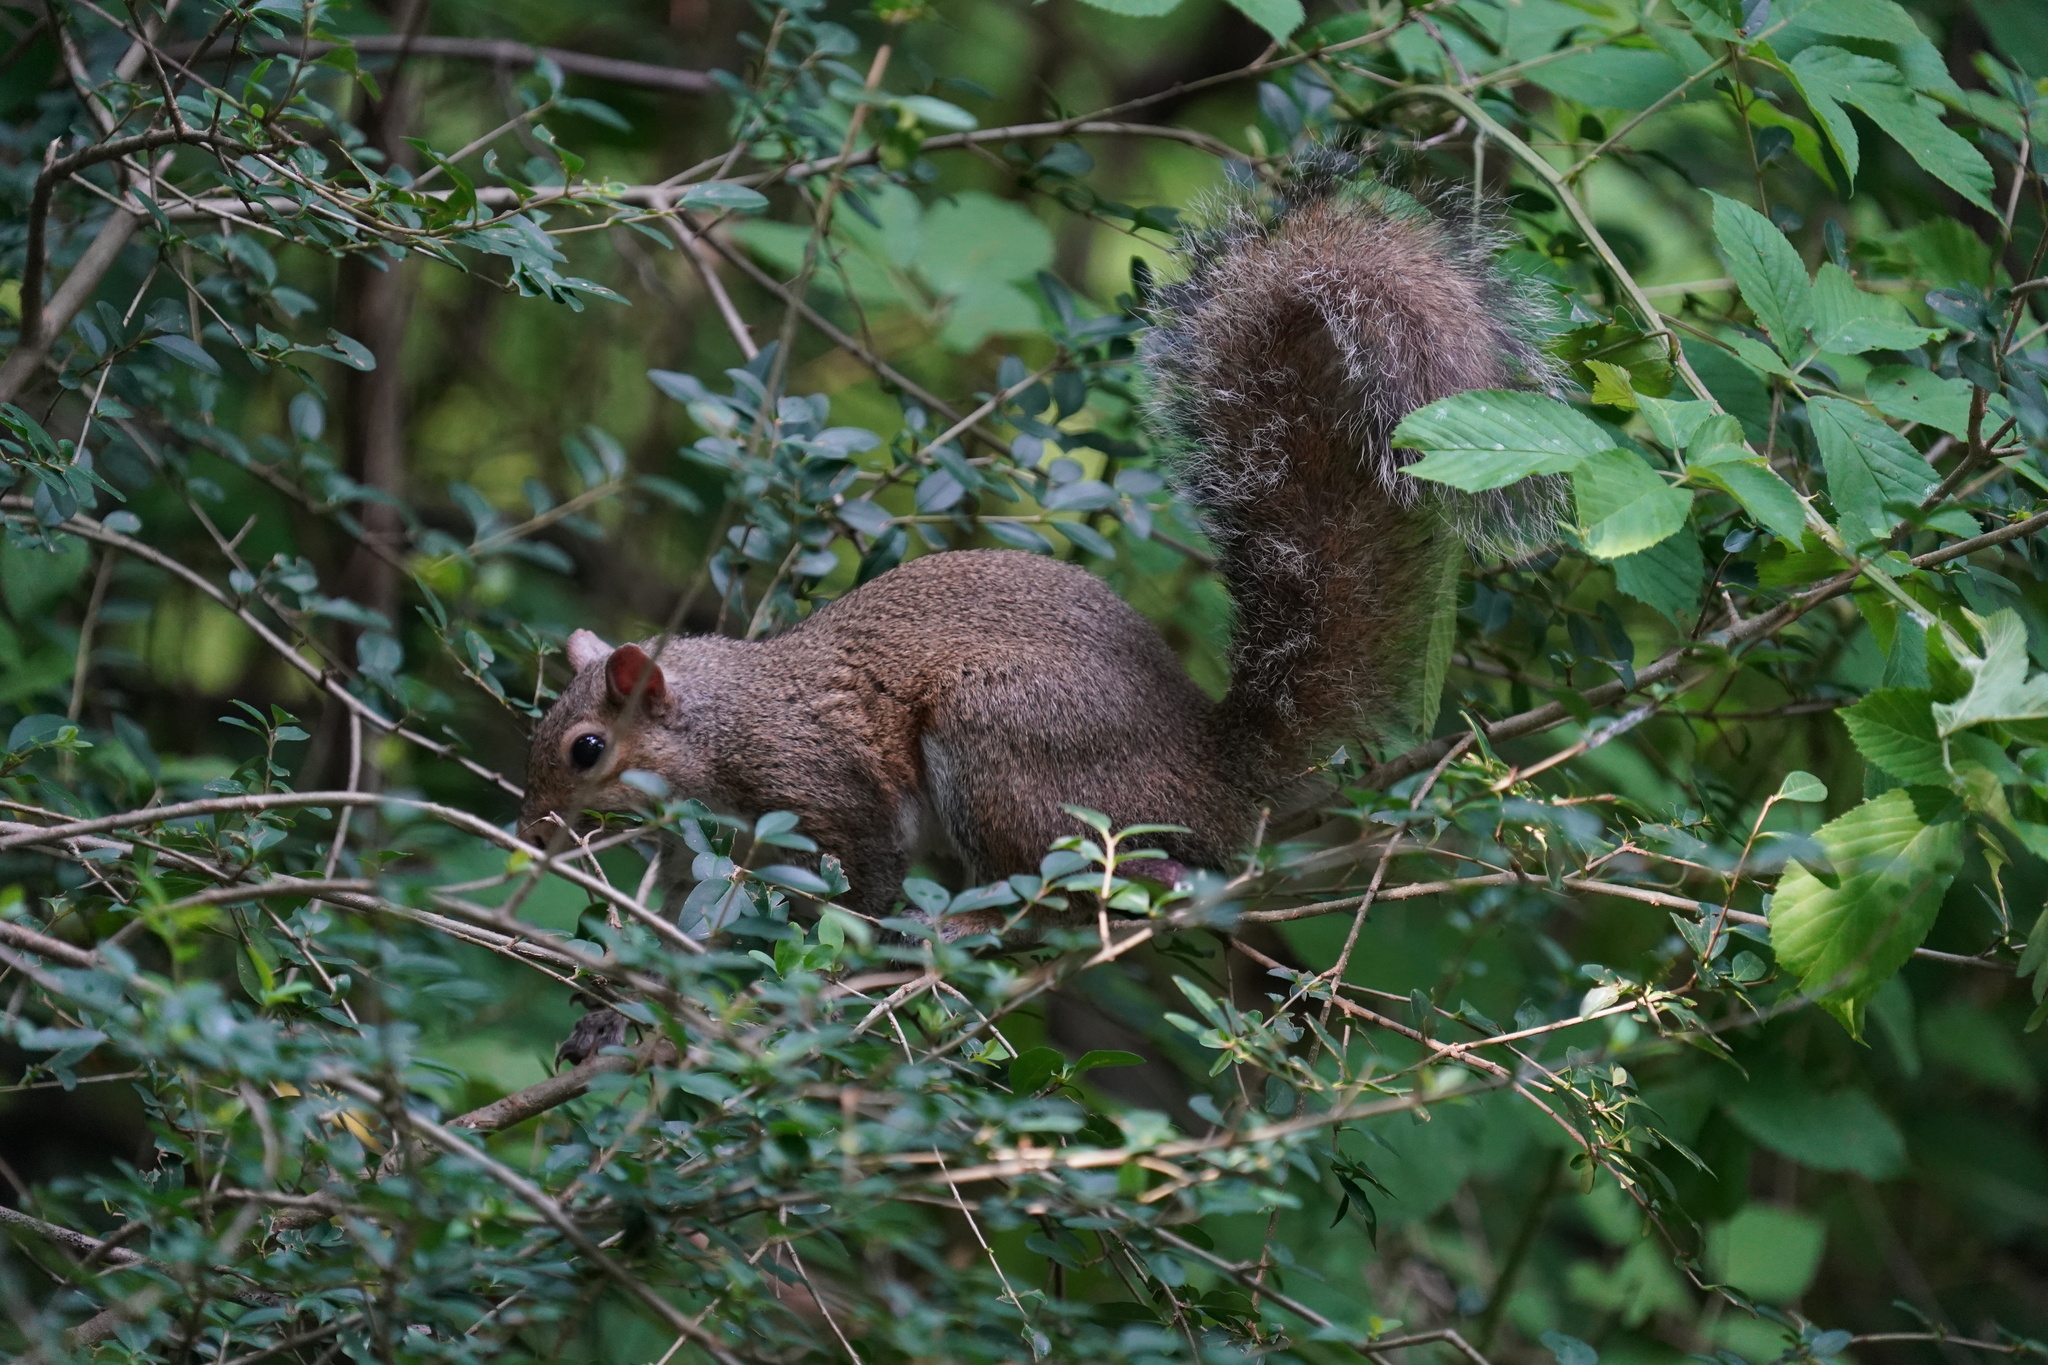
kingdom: Animalia
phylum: Chordata
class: Mammalia
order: Rodentia
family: Sciuridae
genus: Sciurus
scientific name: Sciurus carolinensis
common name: Eastern gray squirrel
